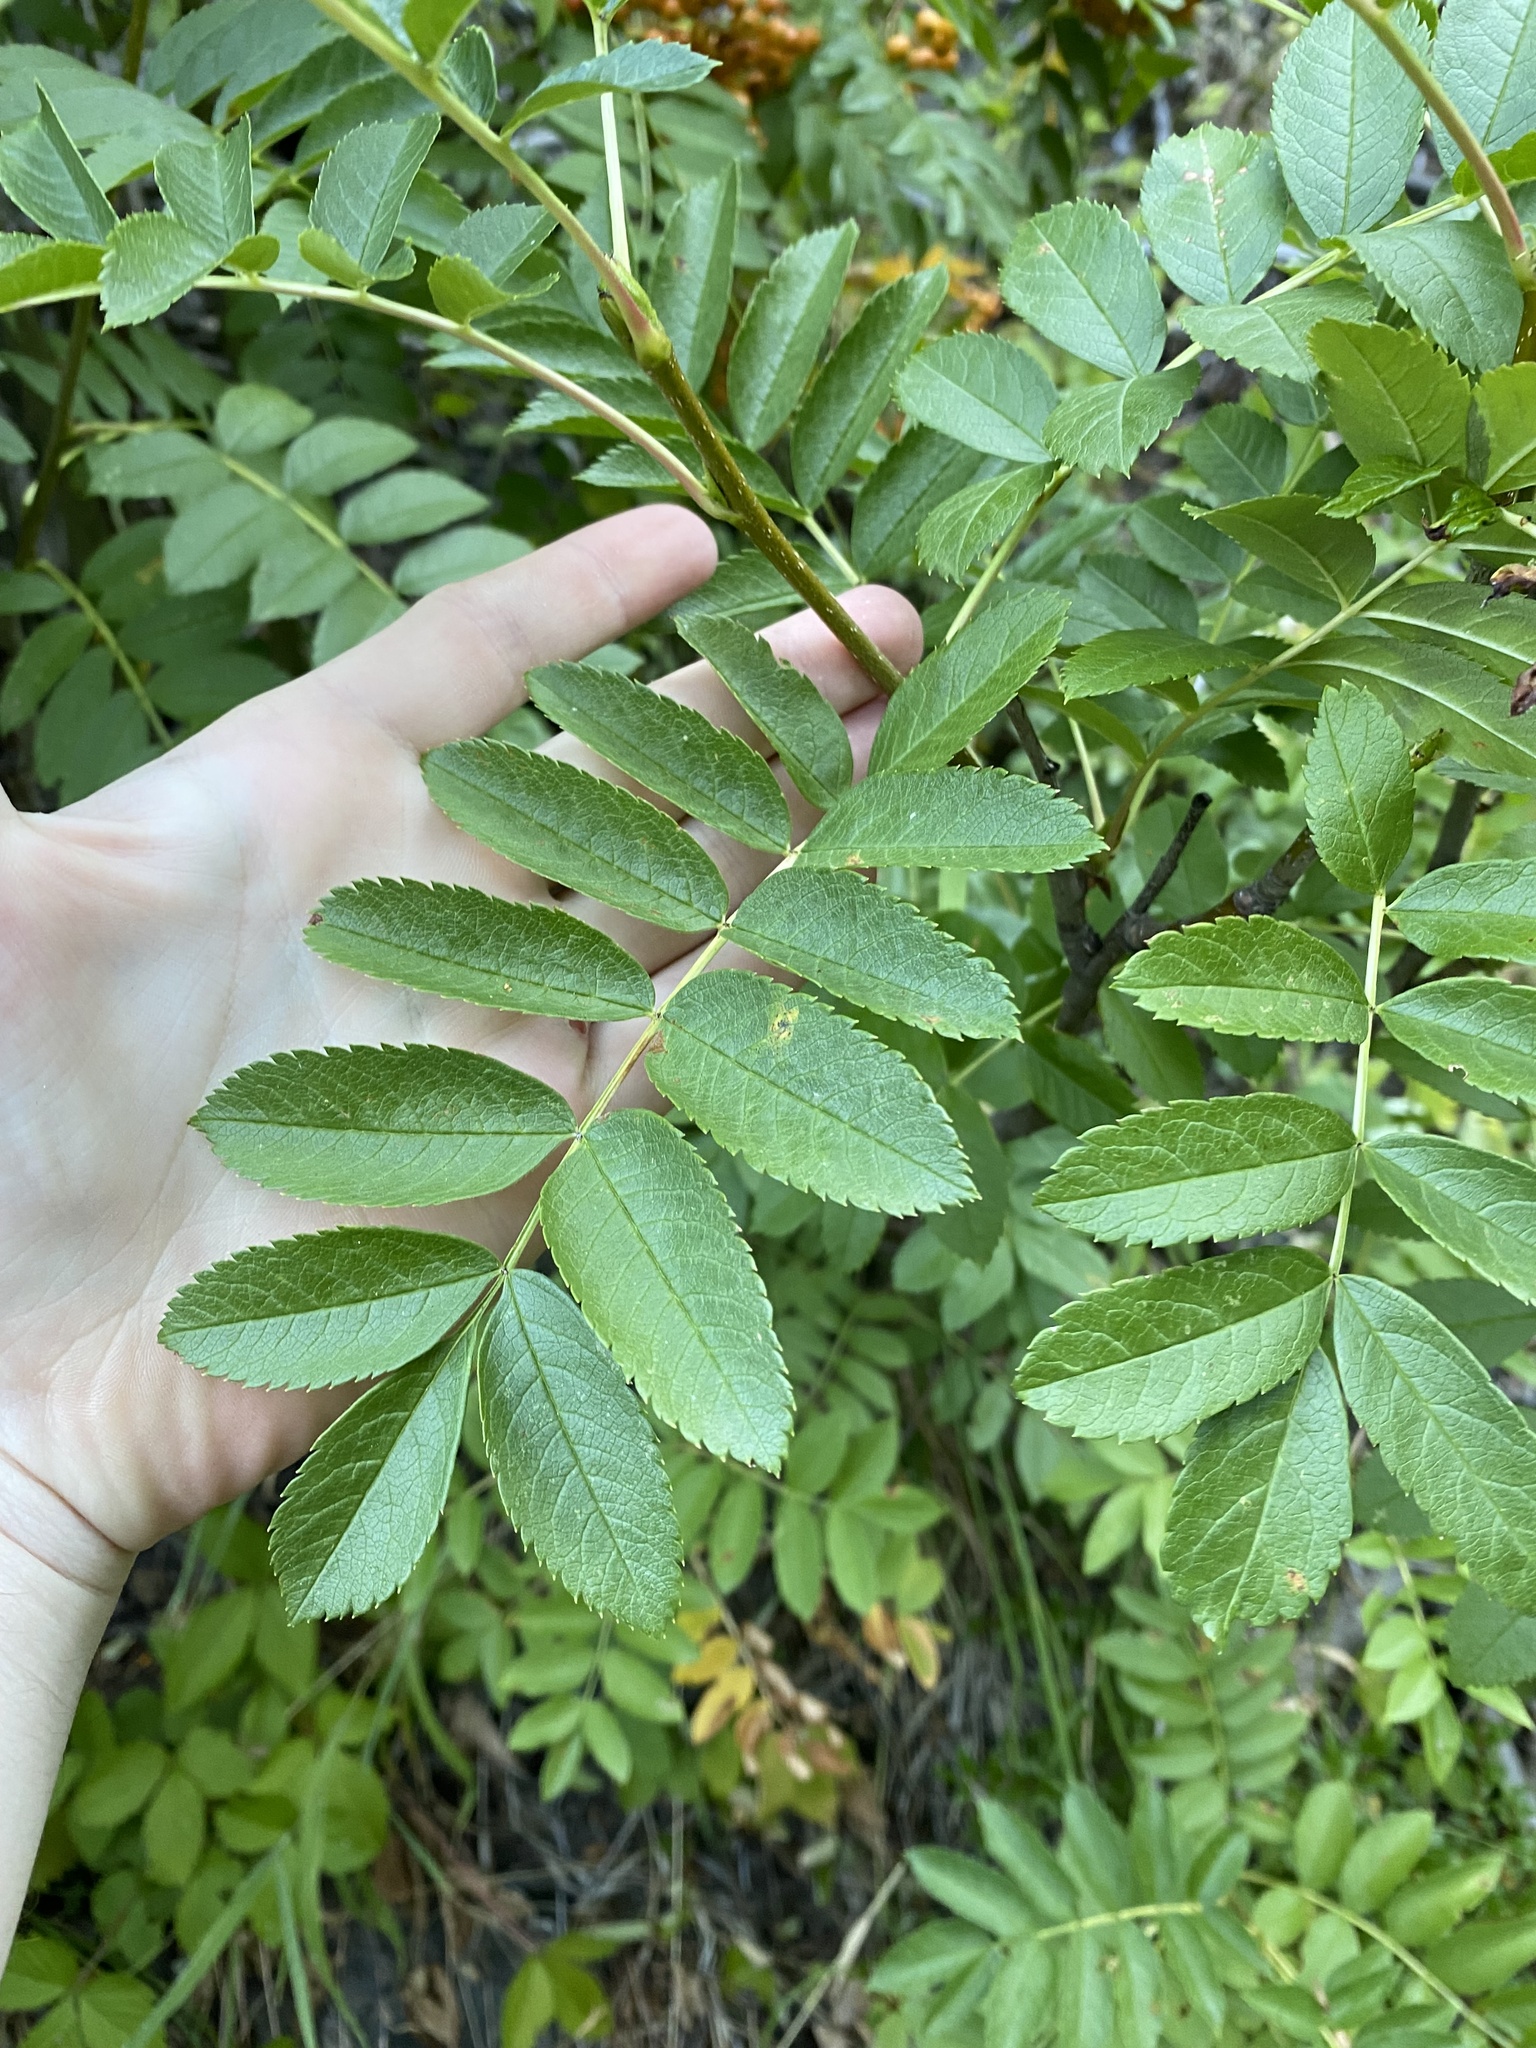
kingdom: Plantae
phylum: Tracheophyta
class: Magnoliopsida
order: Rosales
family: Rosaceae
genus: Sorbus
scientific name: Sorbus scopulina
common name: Greene's mountain-ash
